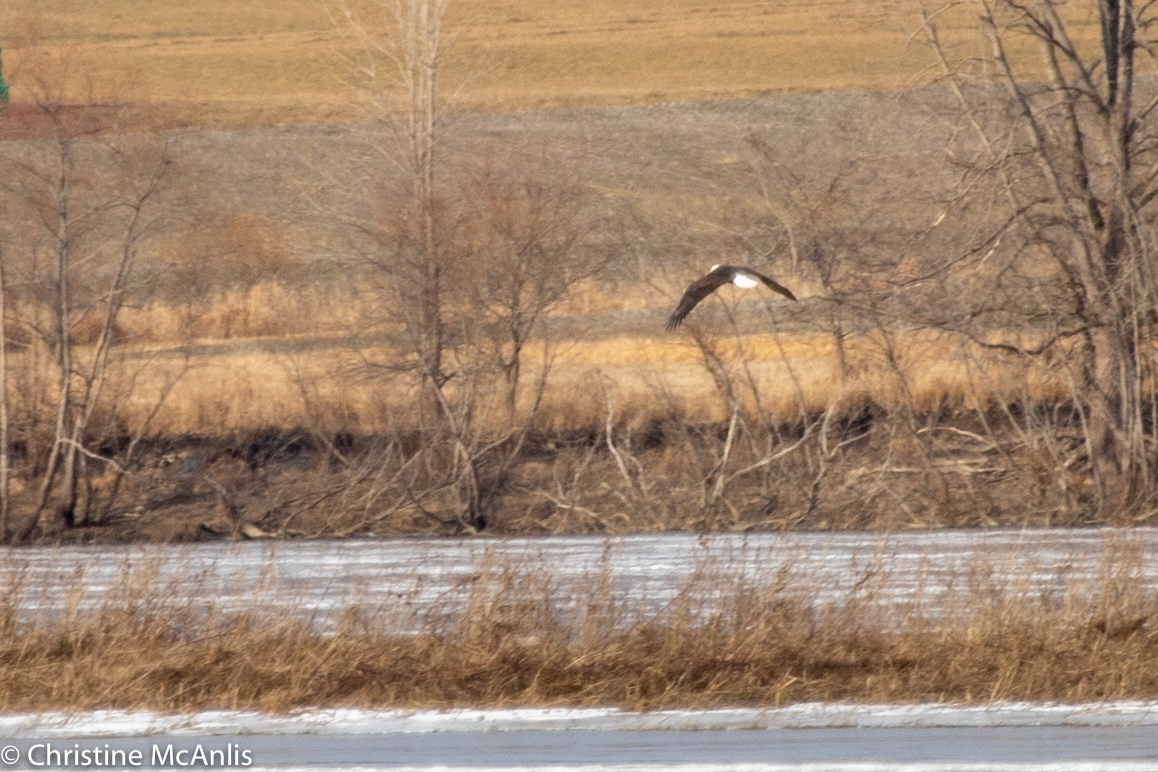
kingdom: Animalia
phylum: Chordata
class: Aves
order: Accipitriformes
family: Accipitridae
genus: Haliaeetus
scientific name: Haliaeetus leucocephalus
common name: Bald eagle
